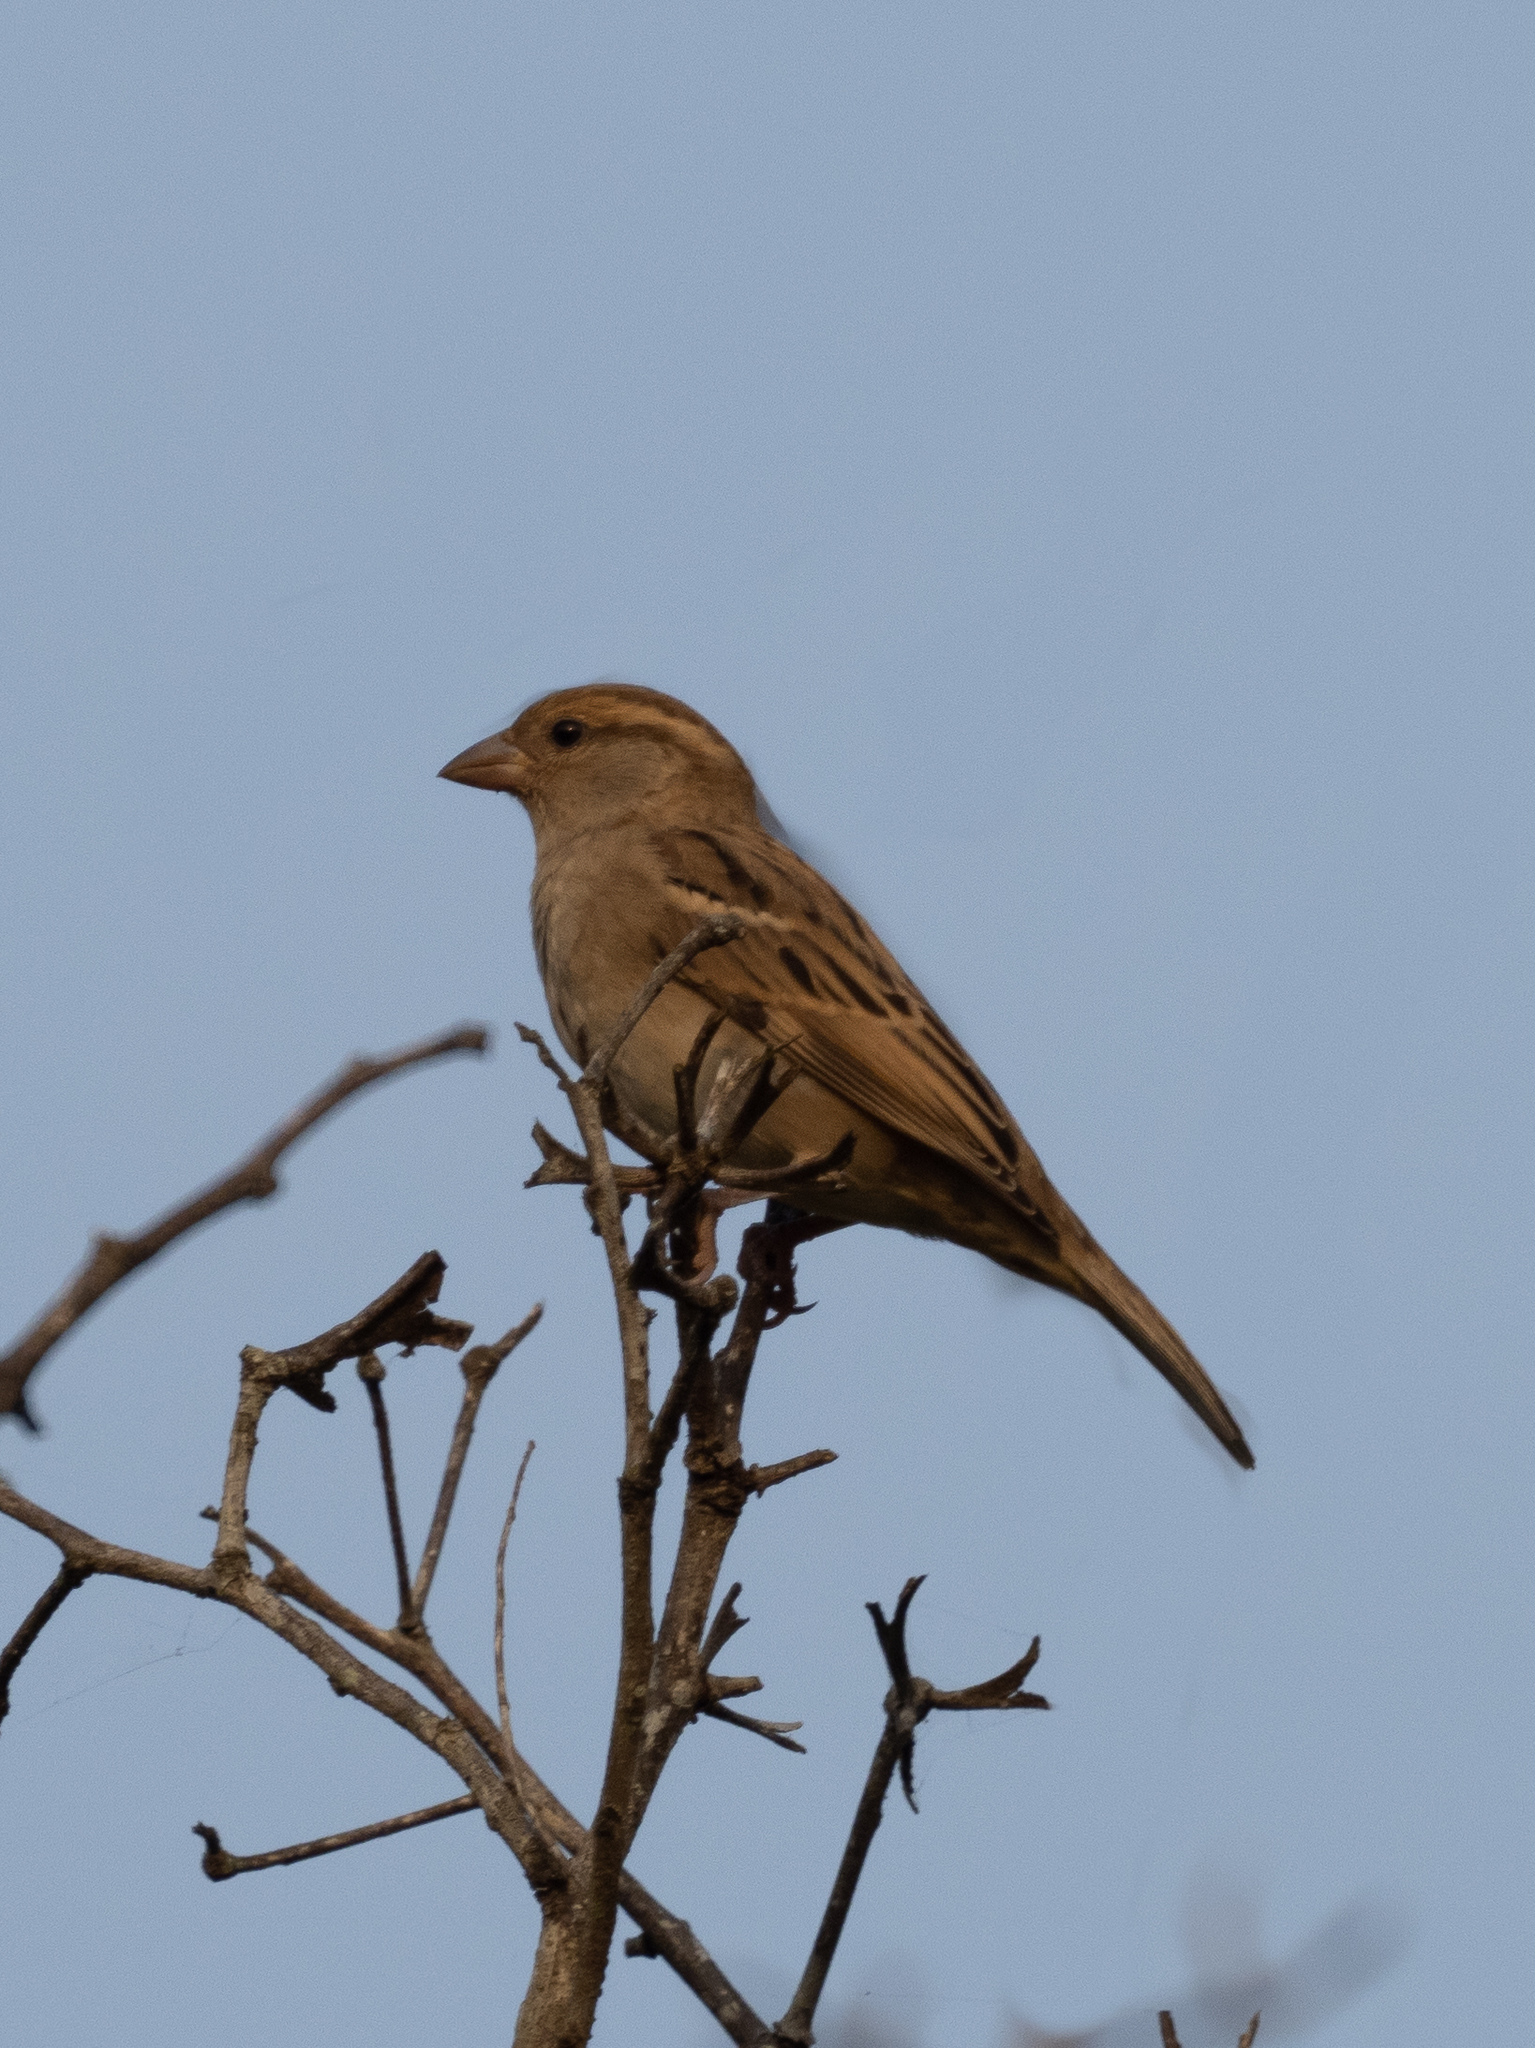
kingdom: Animalia
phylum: Chordata
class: Aves
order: Passeriformes
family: Passeridae
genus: Passer
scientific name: Passer domesticus
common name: House sparrow
